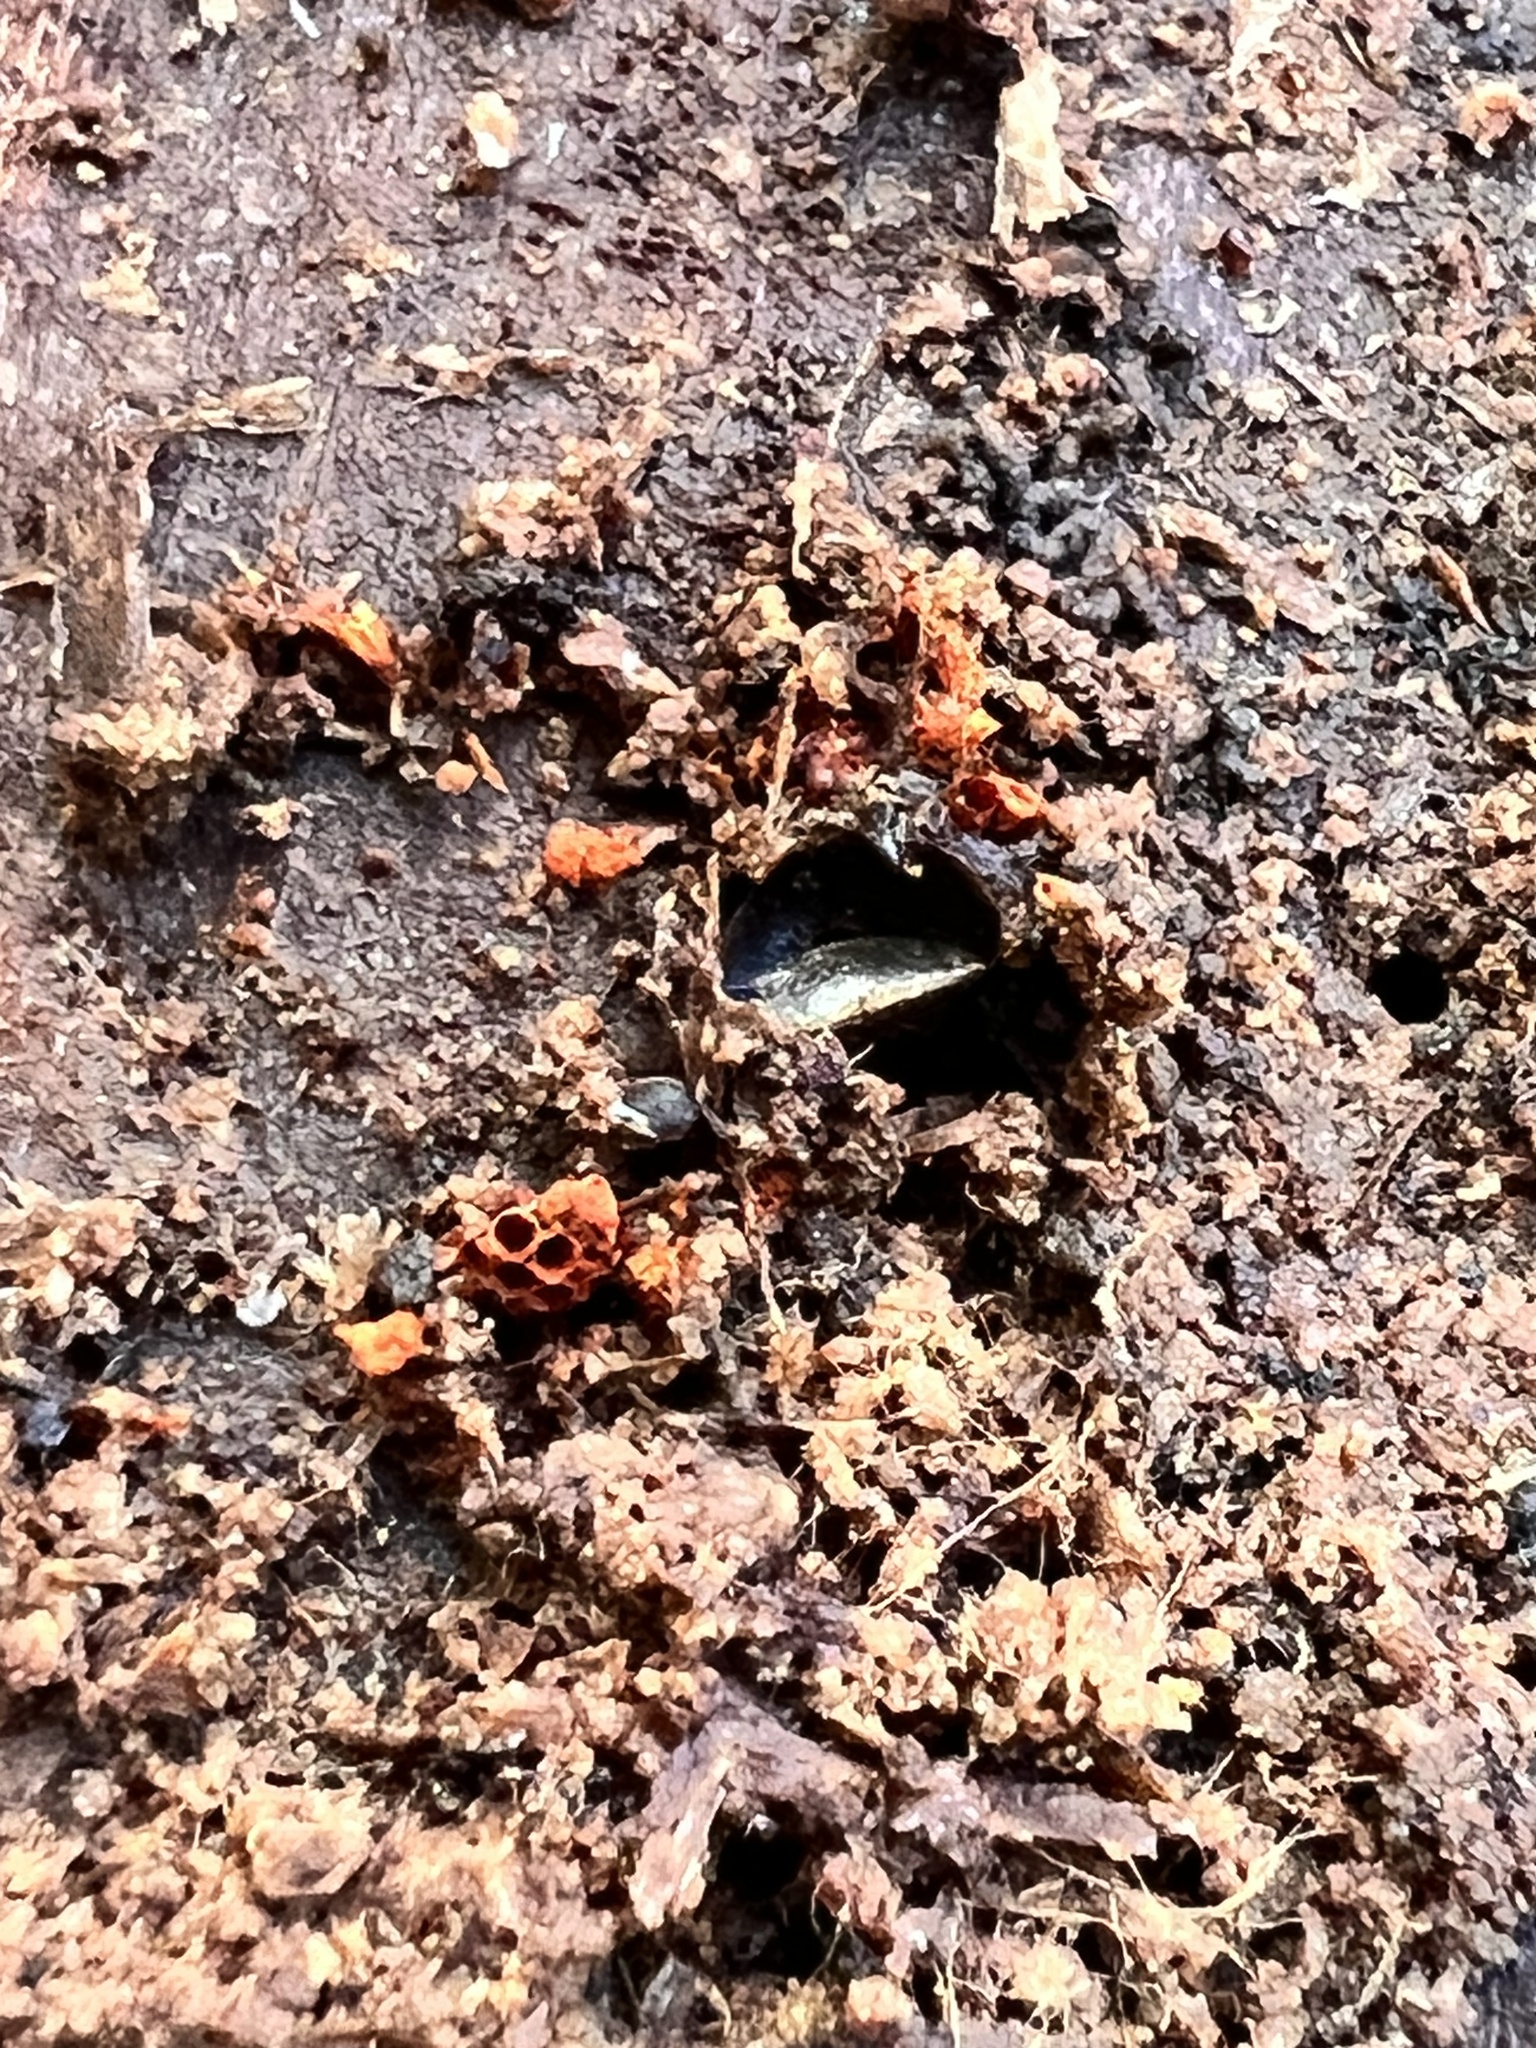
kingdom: Protozoa
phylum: Mycetozoa
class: Myxomycetes
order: Trichiales
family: Trichiaceae
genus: Metatrichia
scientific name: Metatrichia vesparia
